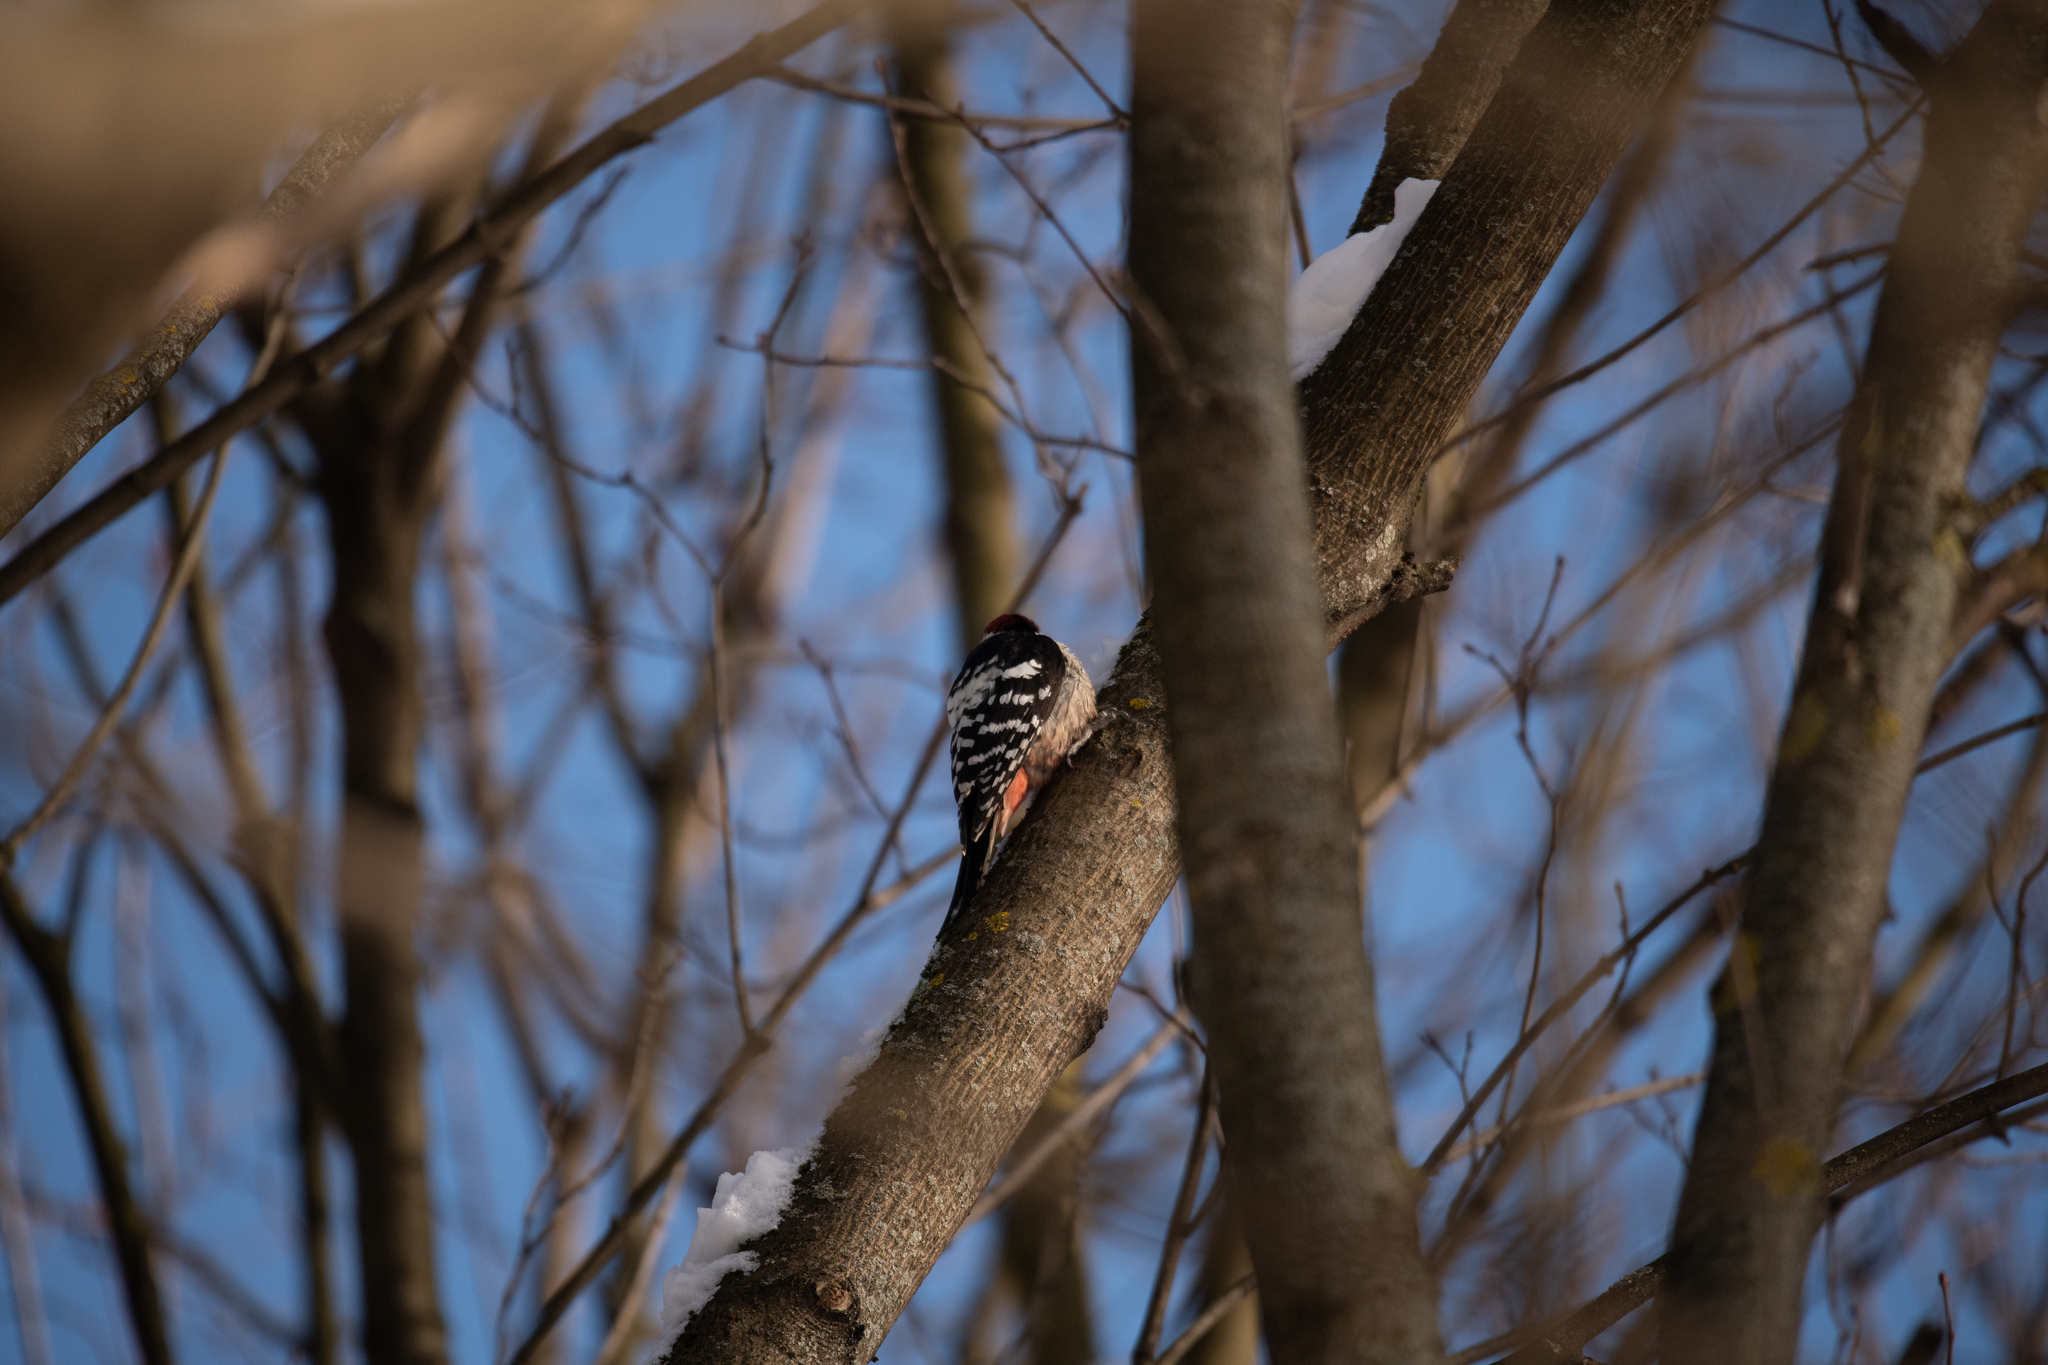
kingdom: Animalia
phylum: Chordata
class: Aves
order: Piciformes
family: Picidae
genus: Dendrocopos
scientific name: Dendrocopos leucotos
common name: White-backed woodpecker
